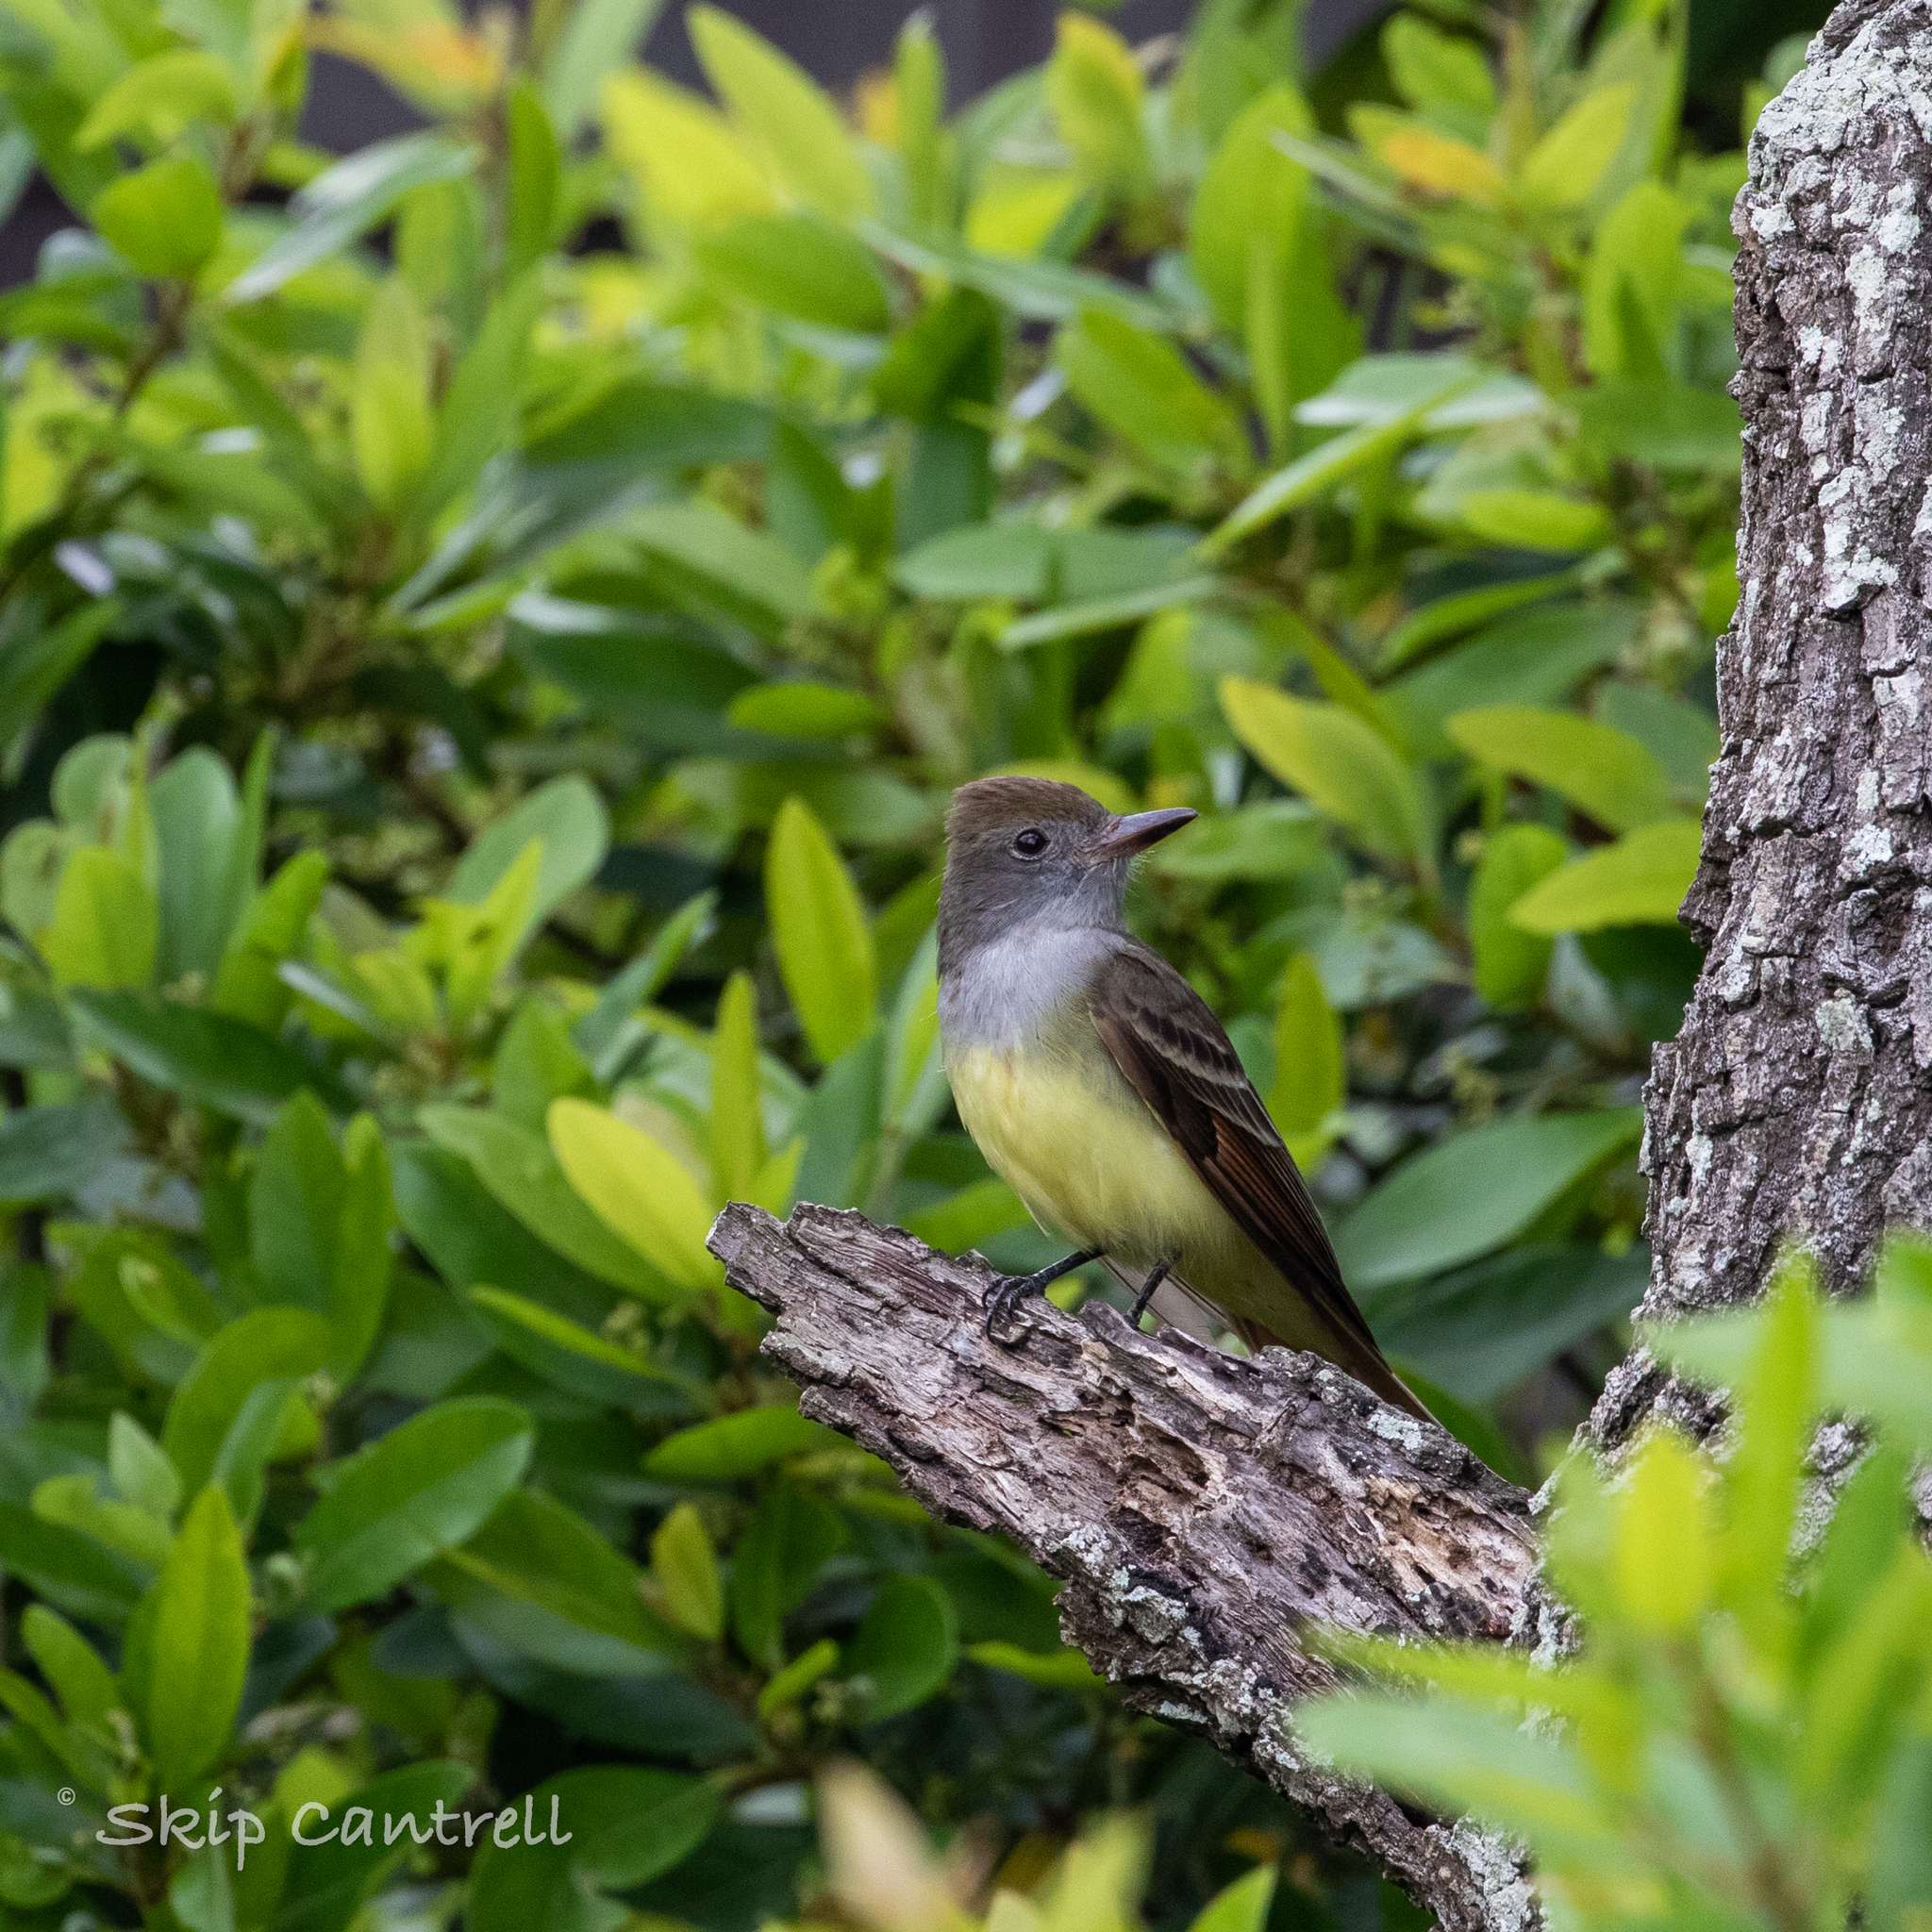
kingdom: Animalia
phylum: Chordata
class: Aves
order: Passeriformes
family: Tyrannidae
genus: Myiarchus
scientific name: Myiarchus crinitus
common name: Great crested flycatcher
